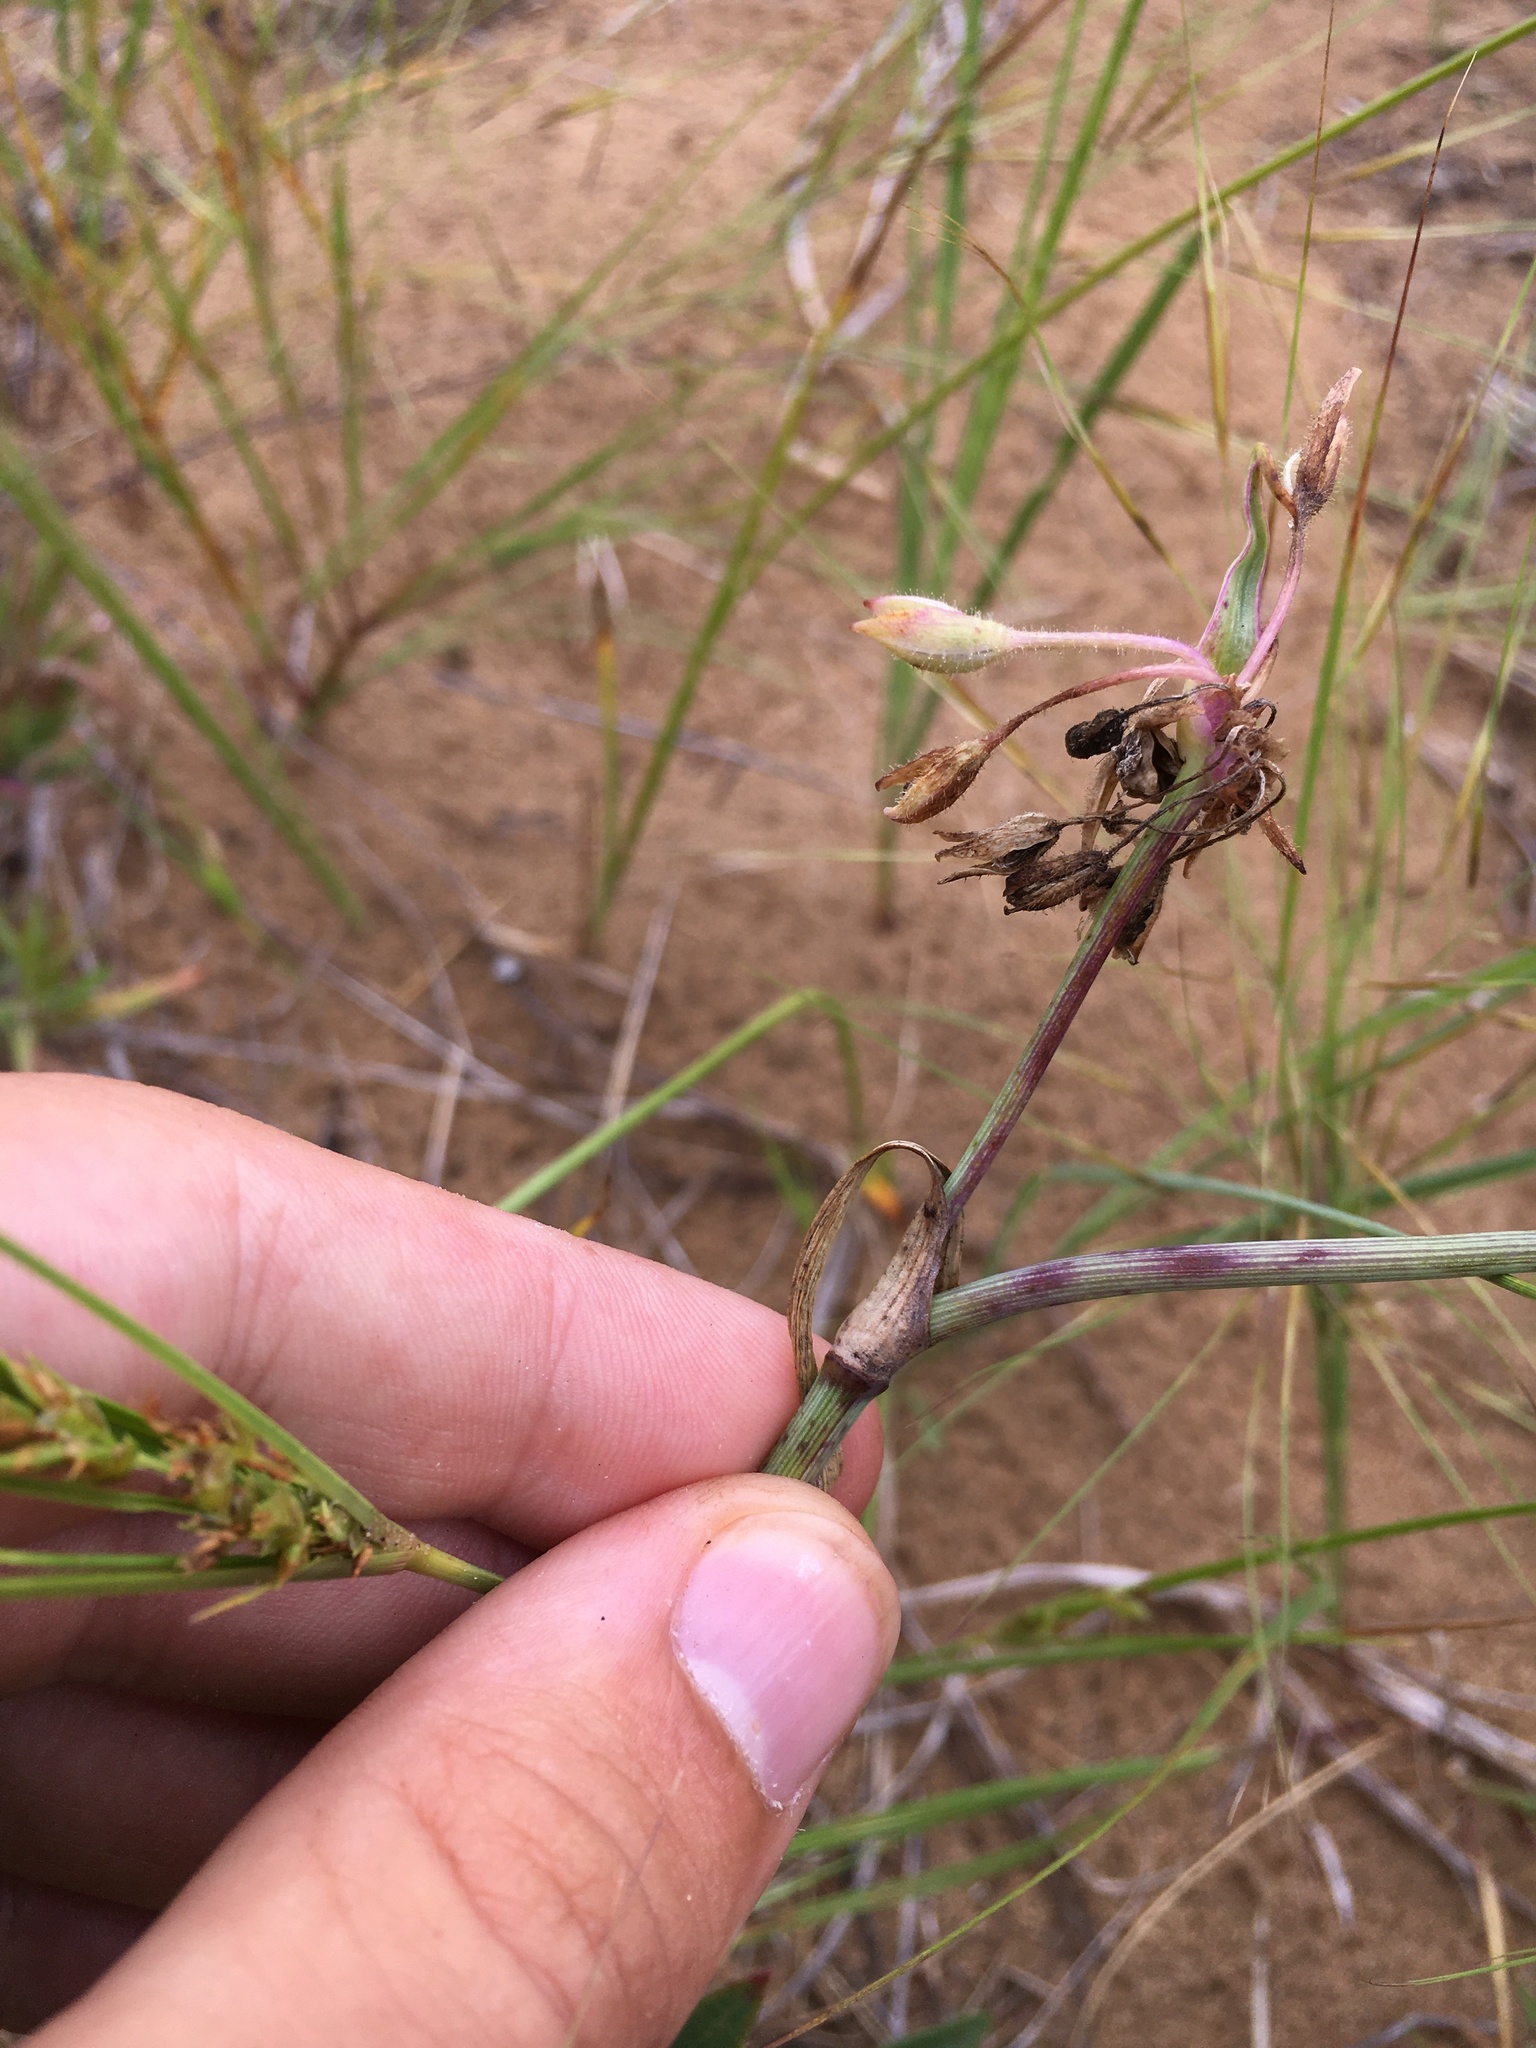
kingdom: Plantae
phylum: Tracheophyta
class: Liliopsida
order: Commelinales
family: Commelinaceae
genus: Tradescantia
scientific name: Tradescantia occidentalis
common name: Prairie spiderwort
